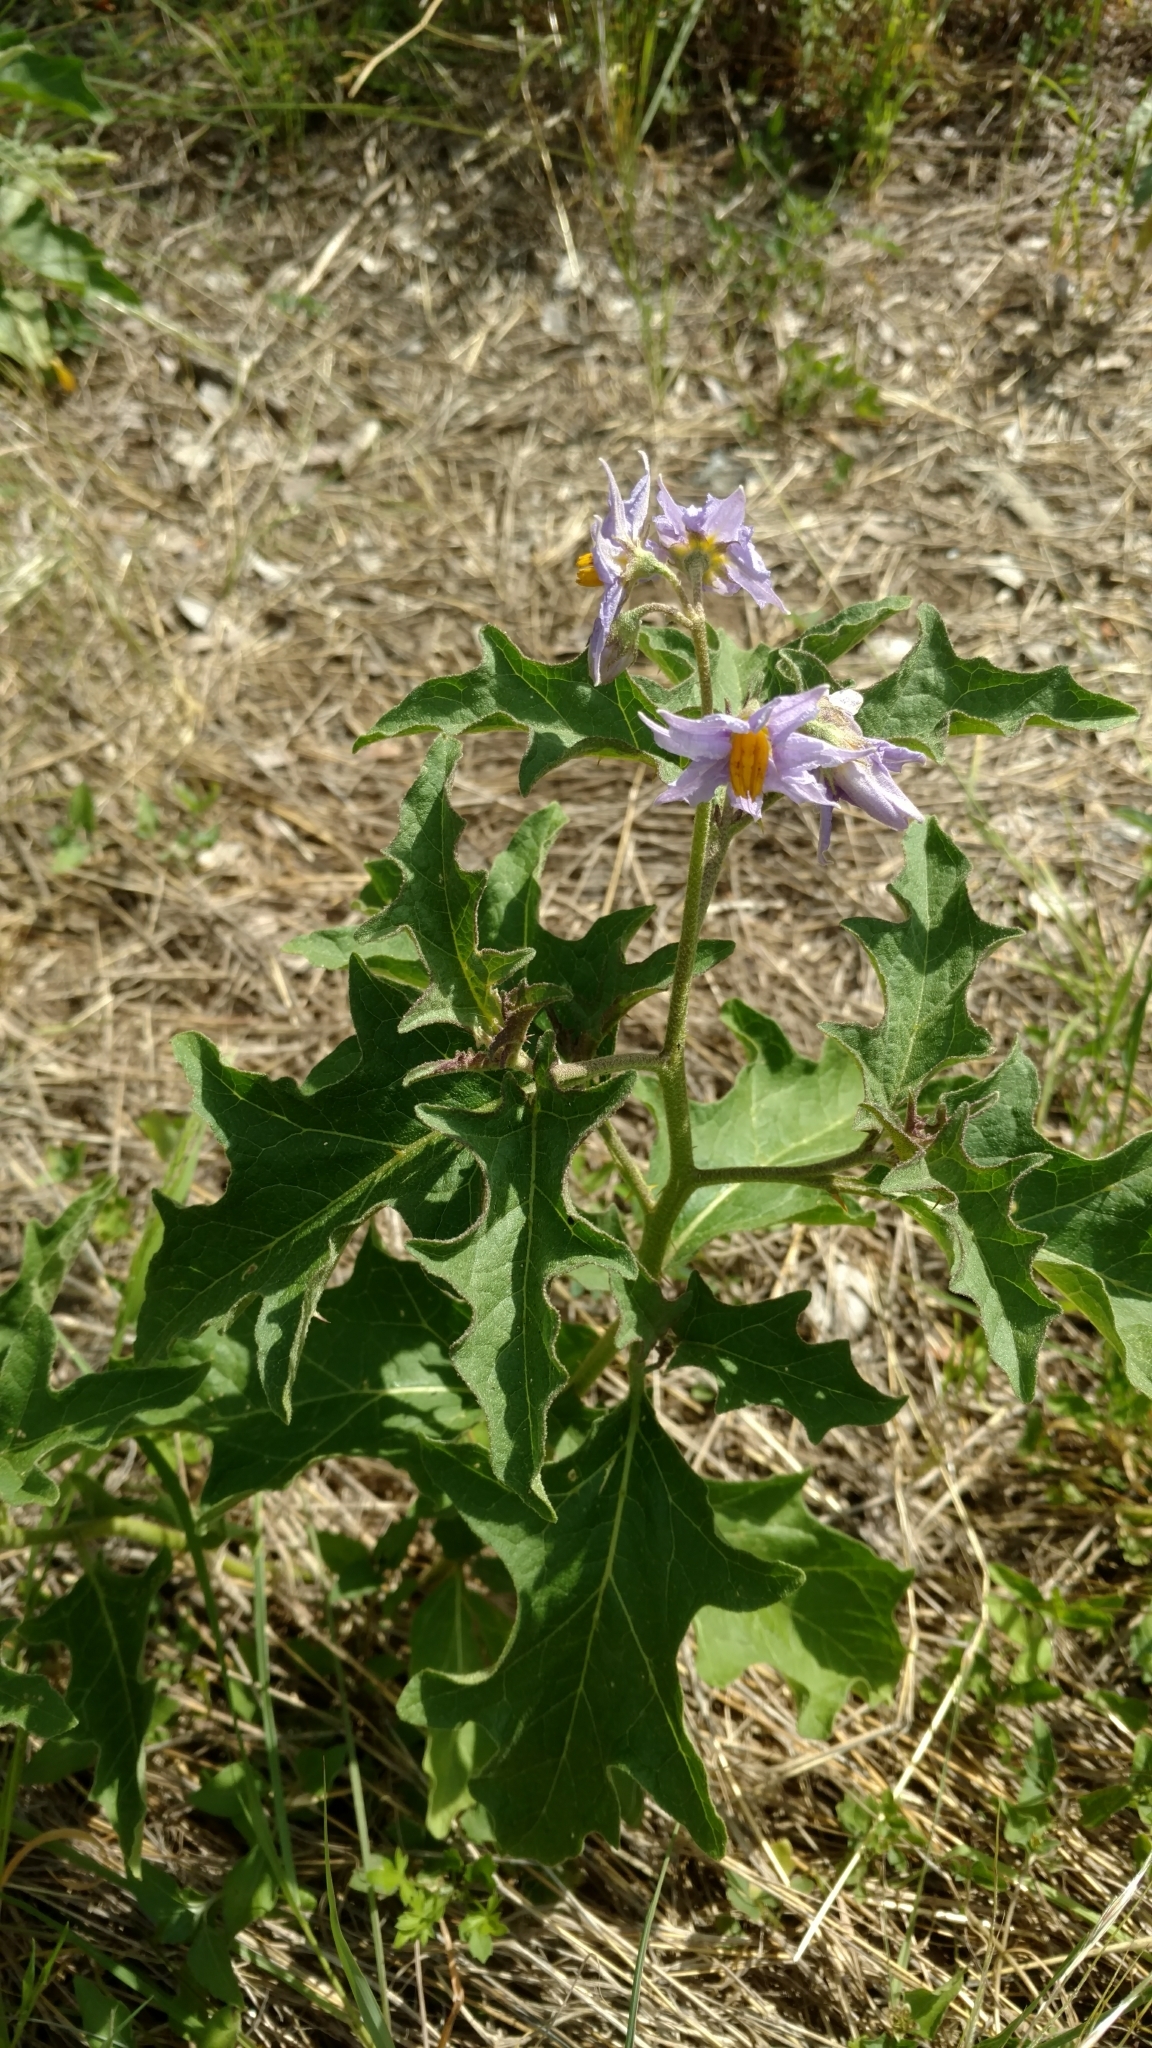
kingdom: Plantae
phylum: Tracheophyta
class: Magnoliopsida
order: Solanales
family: Solanaceae
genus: Solanum
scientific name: Solanum dimidiatum
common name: Carolina horse-nettle
